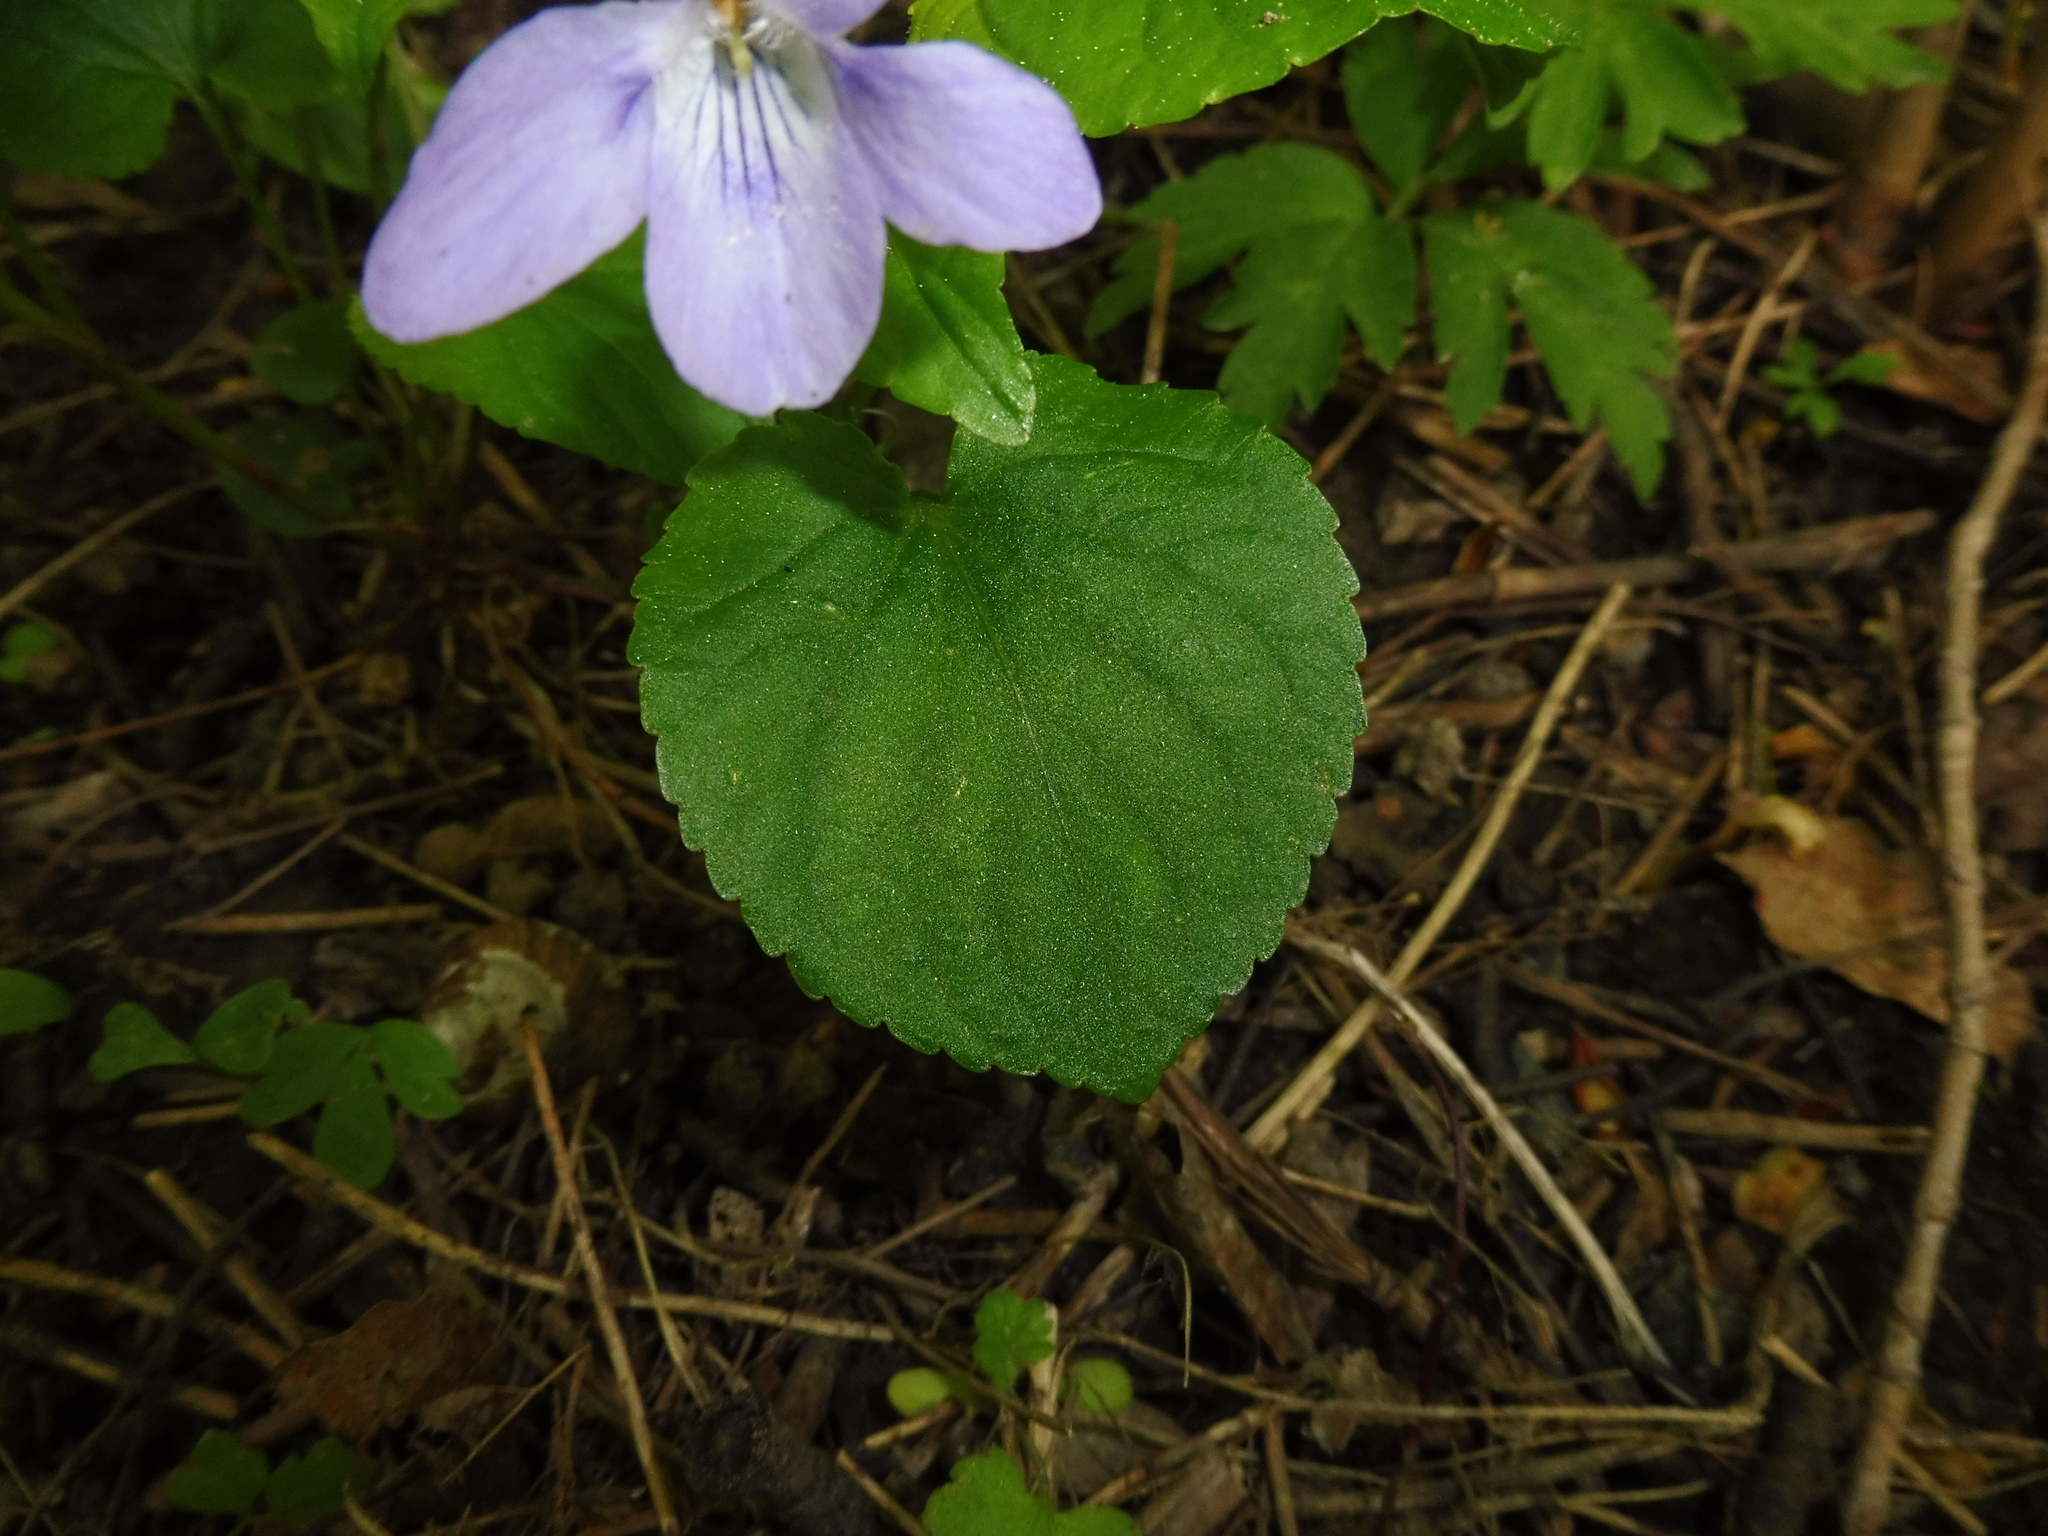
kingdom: Plantae
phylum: Tracheophyta
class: Magnoliopsida
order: Malpighiales
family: Violaceae
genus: Viola
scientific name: Viola riviniana
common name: Common dog-violet
